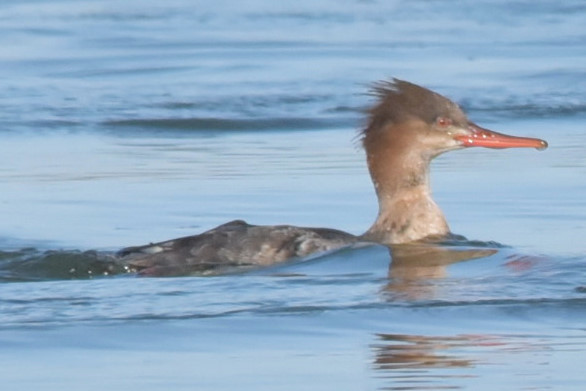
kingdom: Animalia
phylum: Chordata
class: Aves
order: Anseriformes
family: Anatidae
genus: Mergus
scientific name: Mergus serrator
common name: Red-breasted merganser
